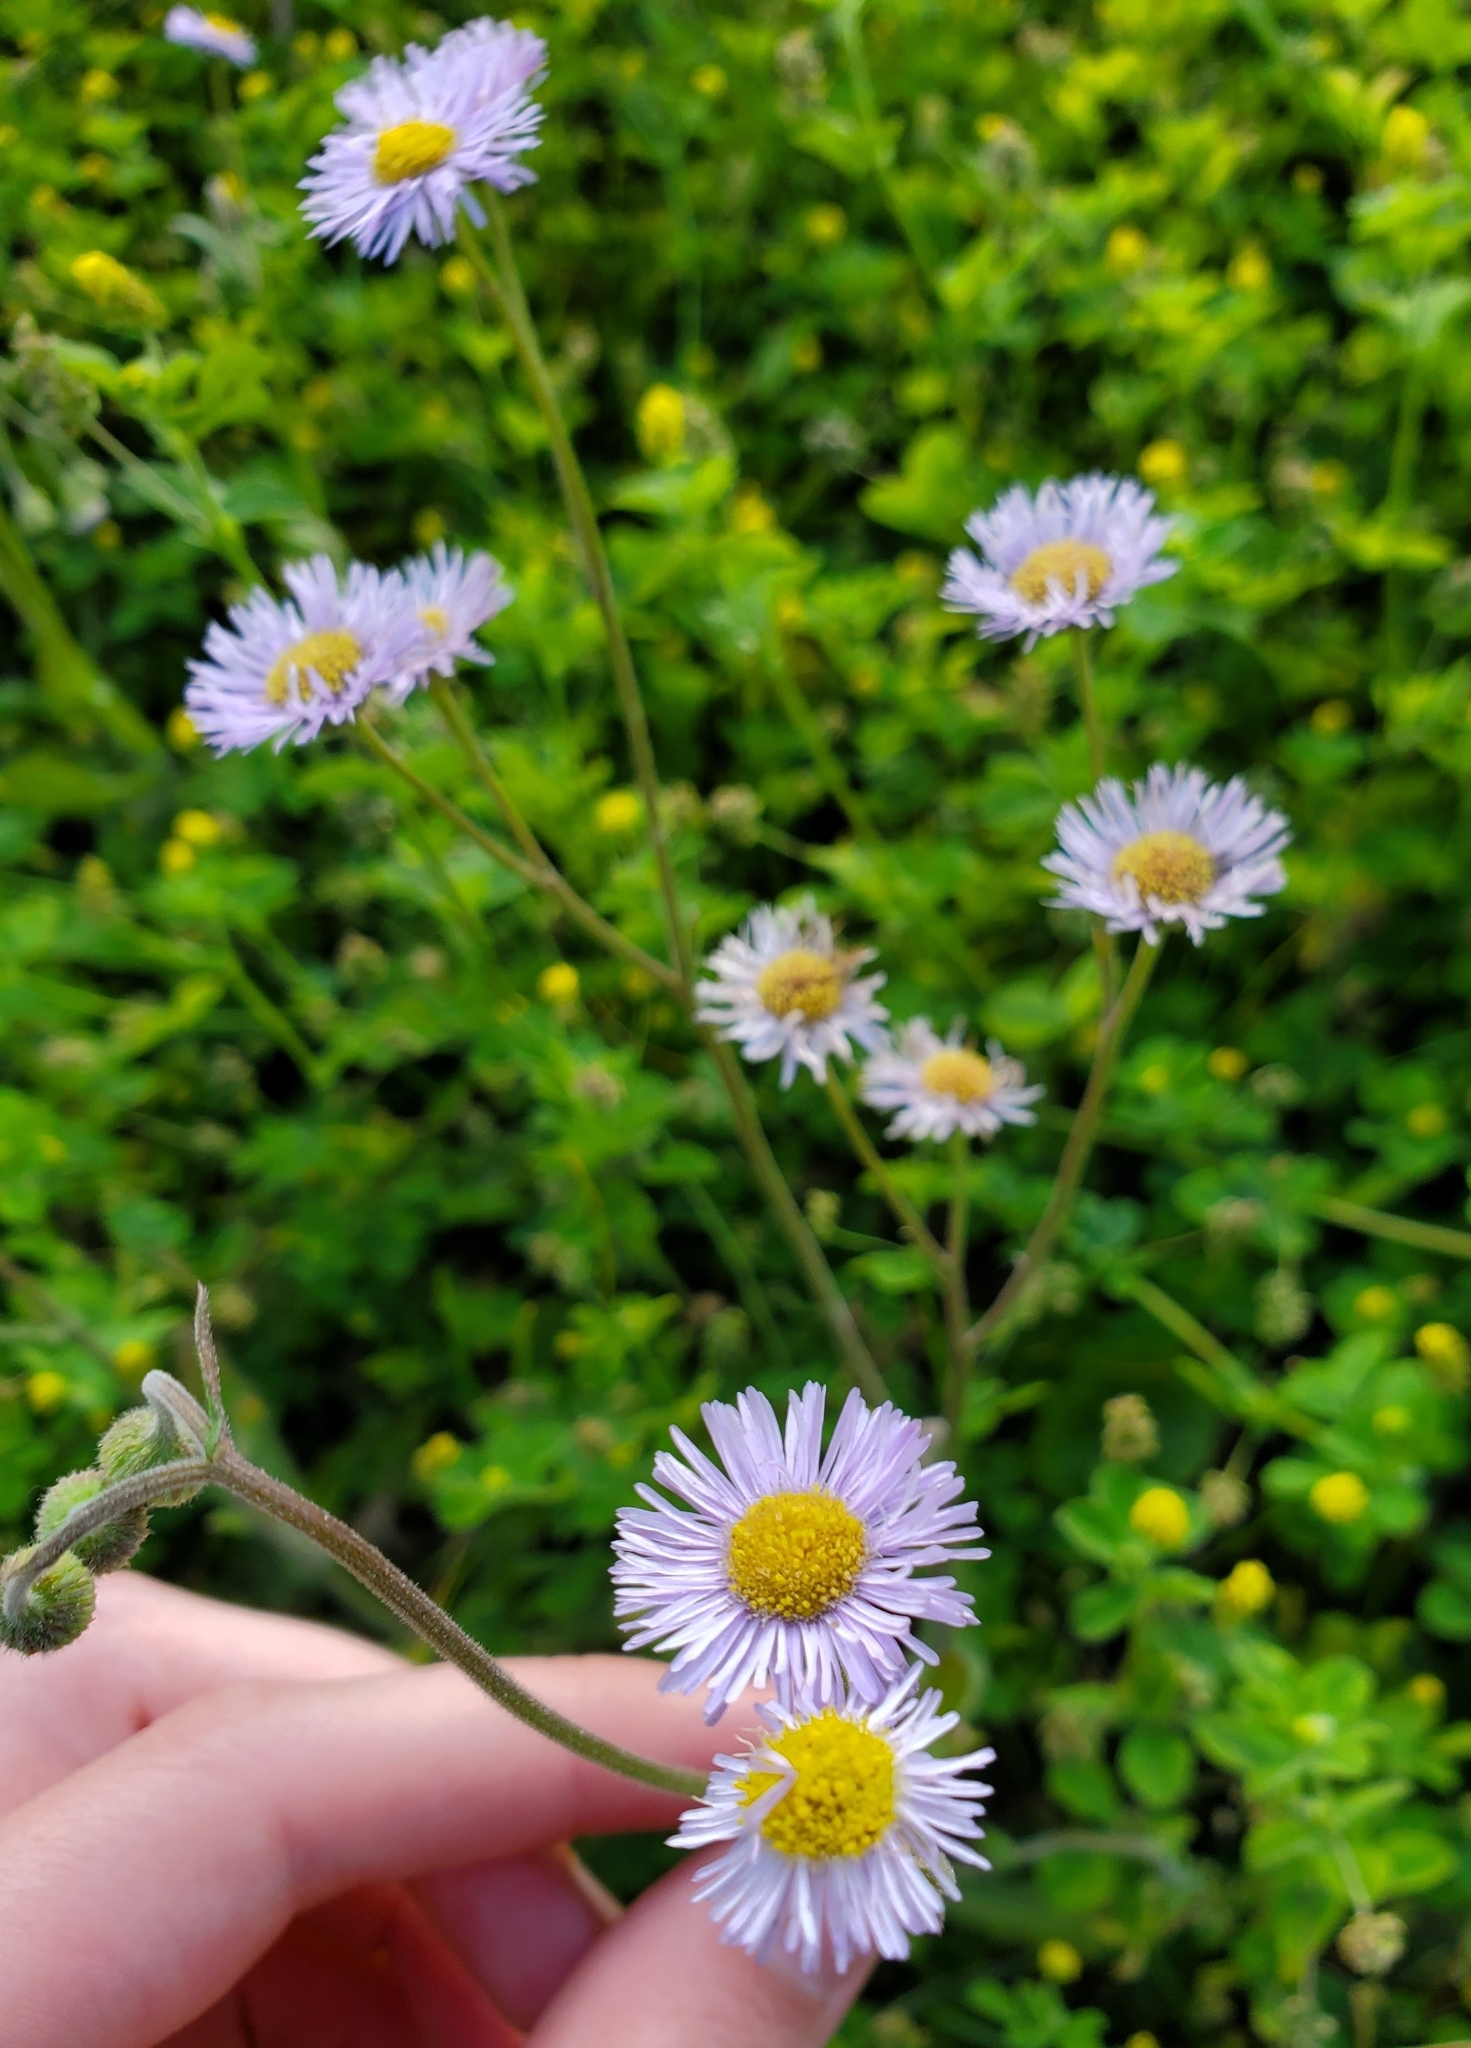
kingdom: Plantae
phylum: Tracheophyta
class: Magnoliopsida
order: Asterales
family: Asteraceae
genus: Erigeron
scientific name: Erigeron quercifolius
